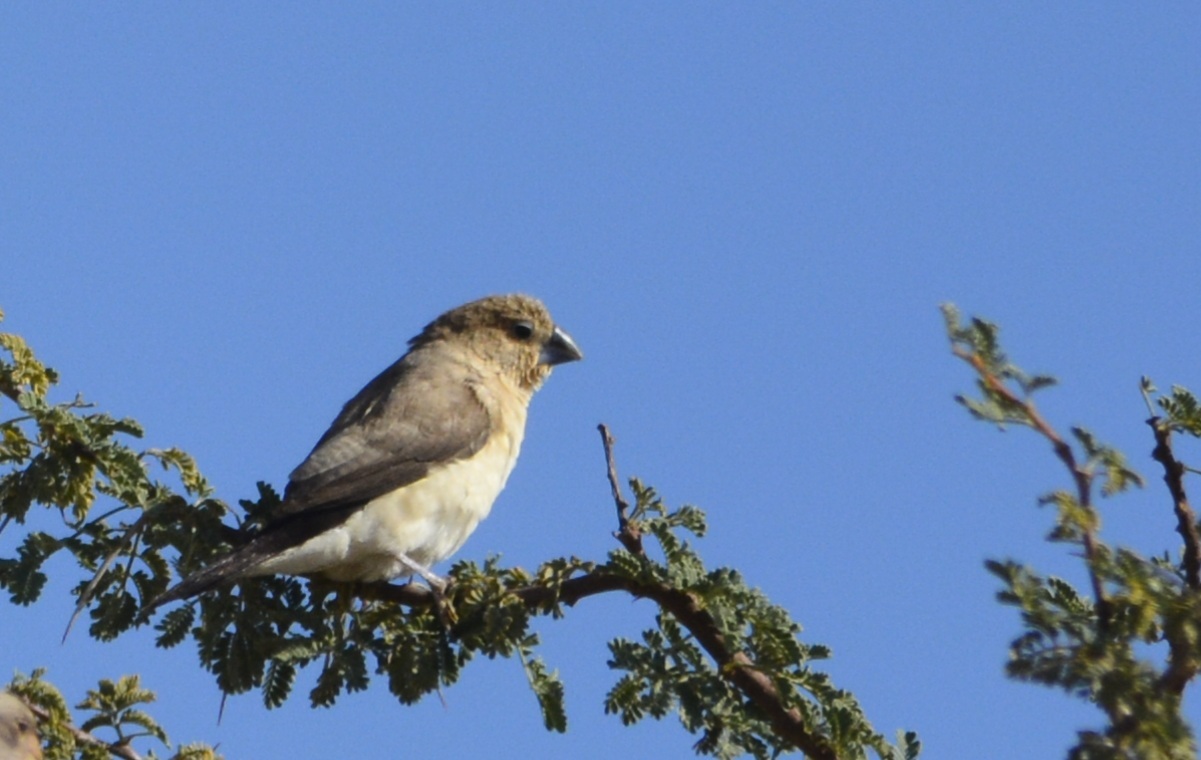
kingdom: Animalia
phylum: Chordata
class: Aves
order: Passeriformes
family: Estrildidae
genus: Euodice
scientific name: Euodice cantans
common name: African silverbill
